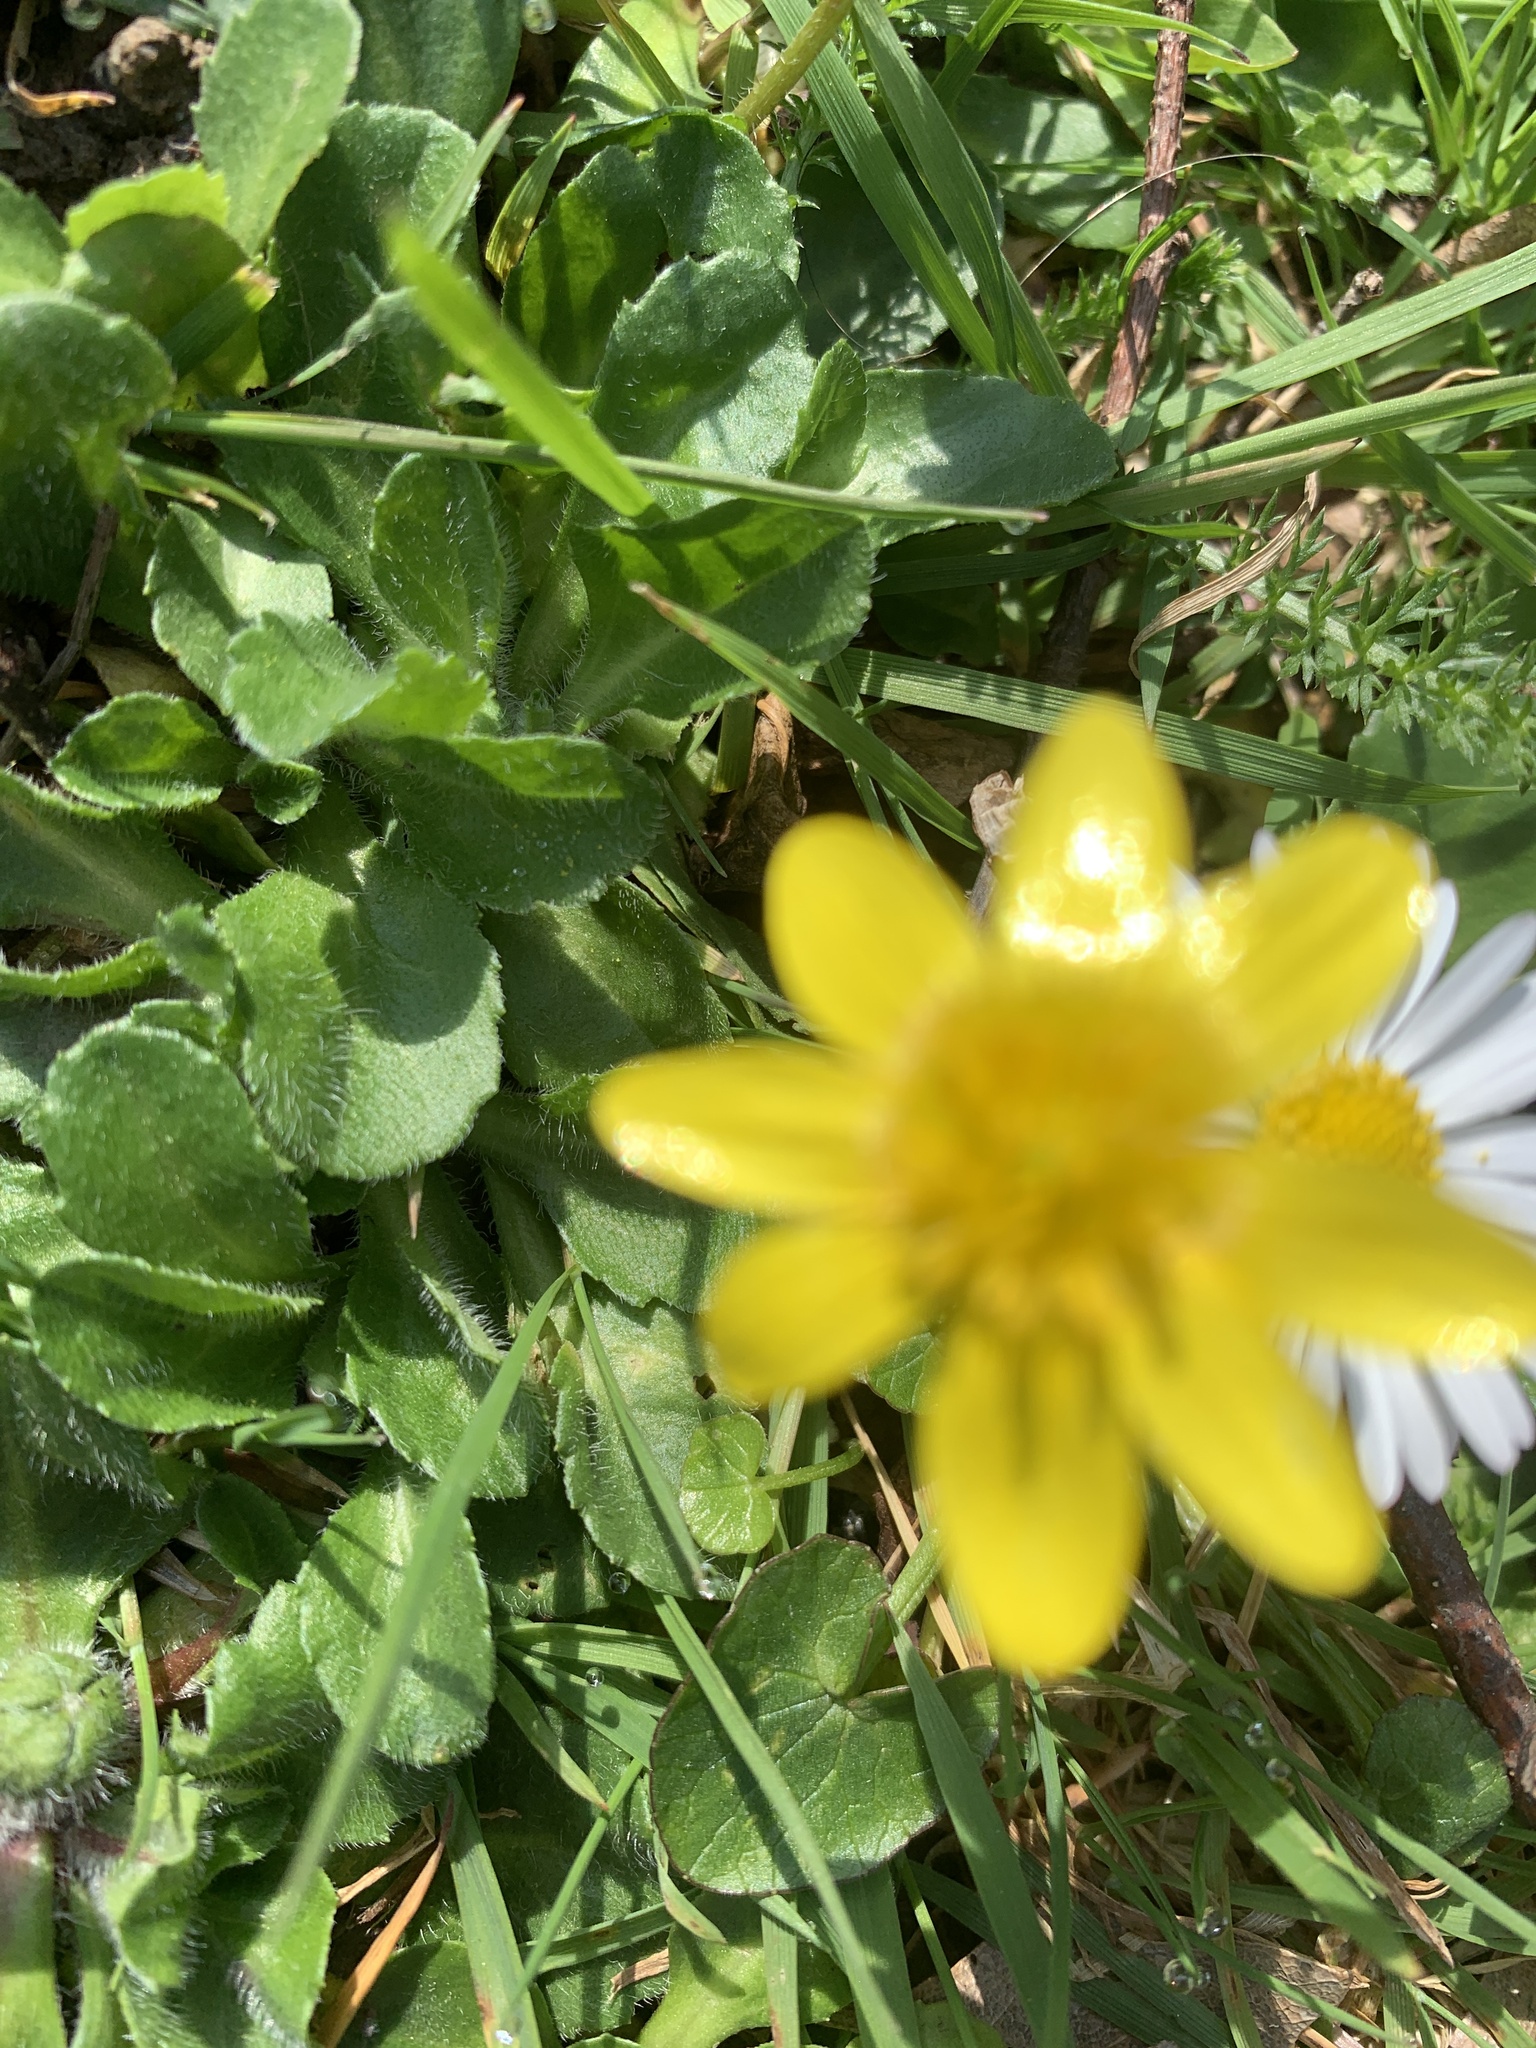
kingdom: Plantae
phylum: Tracheophyta
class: Magnoliopsida
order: Ranunculales
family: Ranunculaceae
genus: Ficaria
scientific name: Ficaria verna
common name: Lesser celandine
